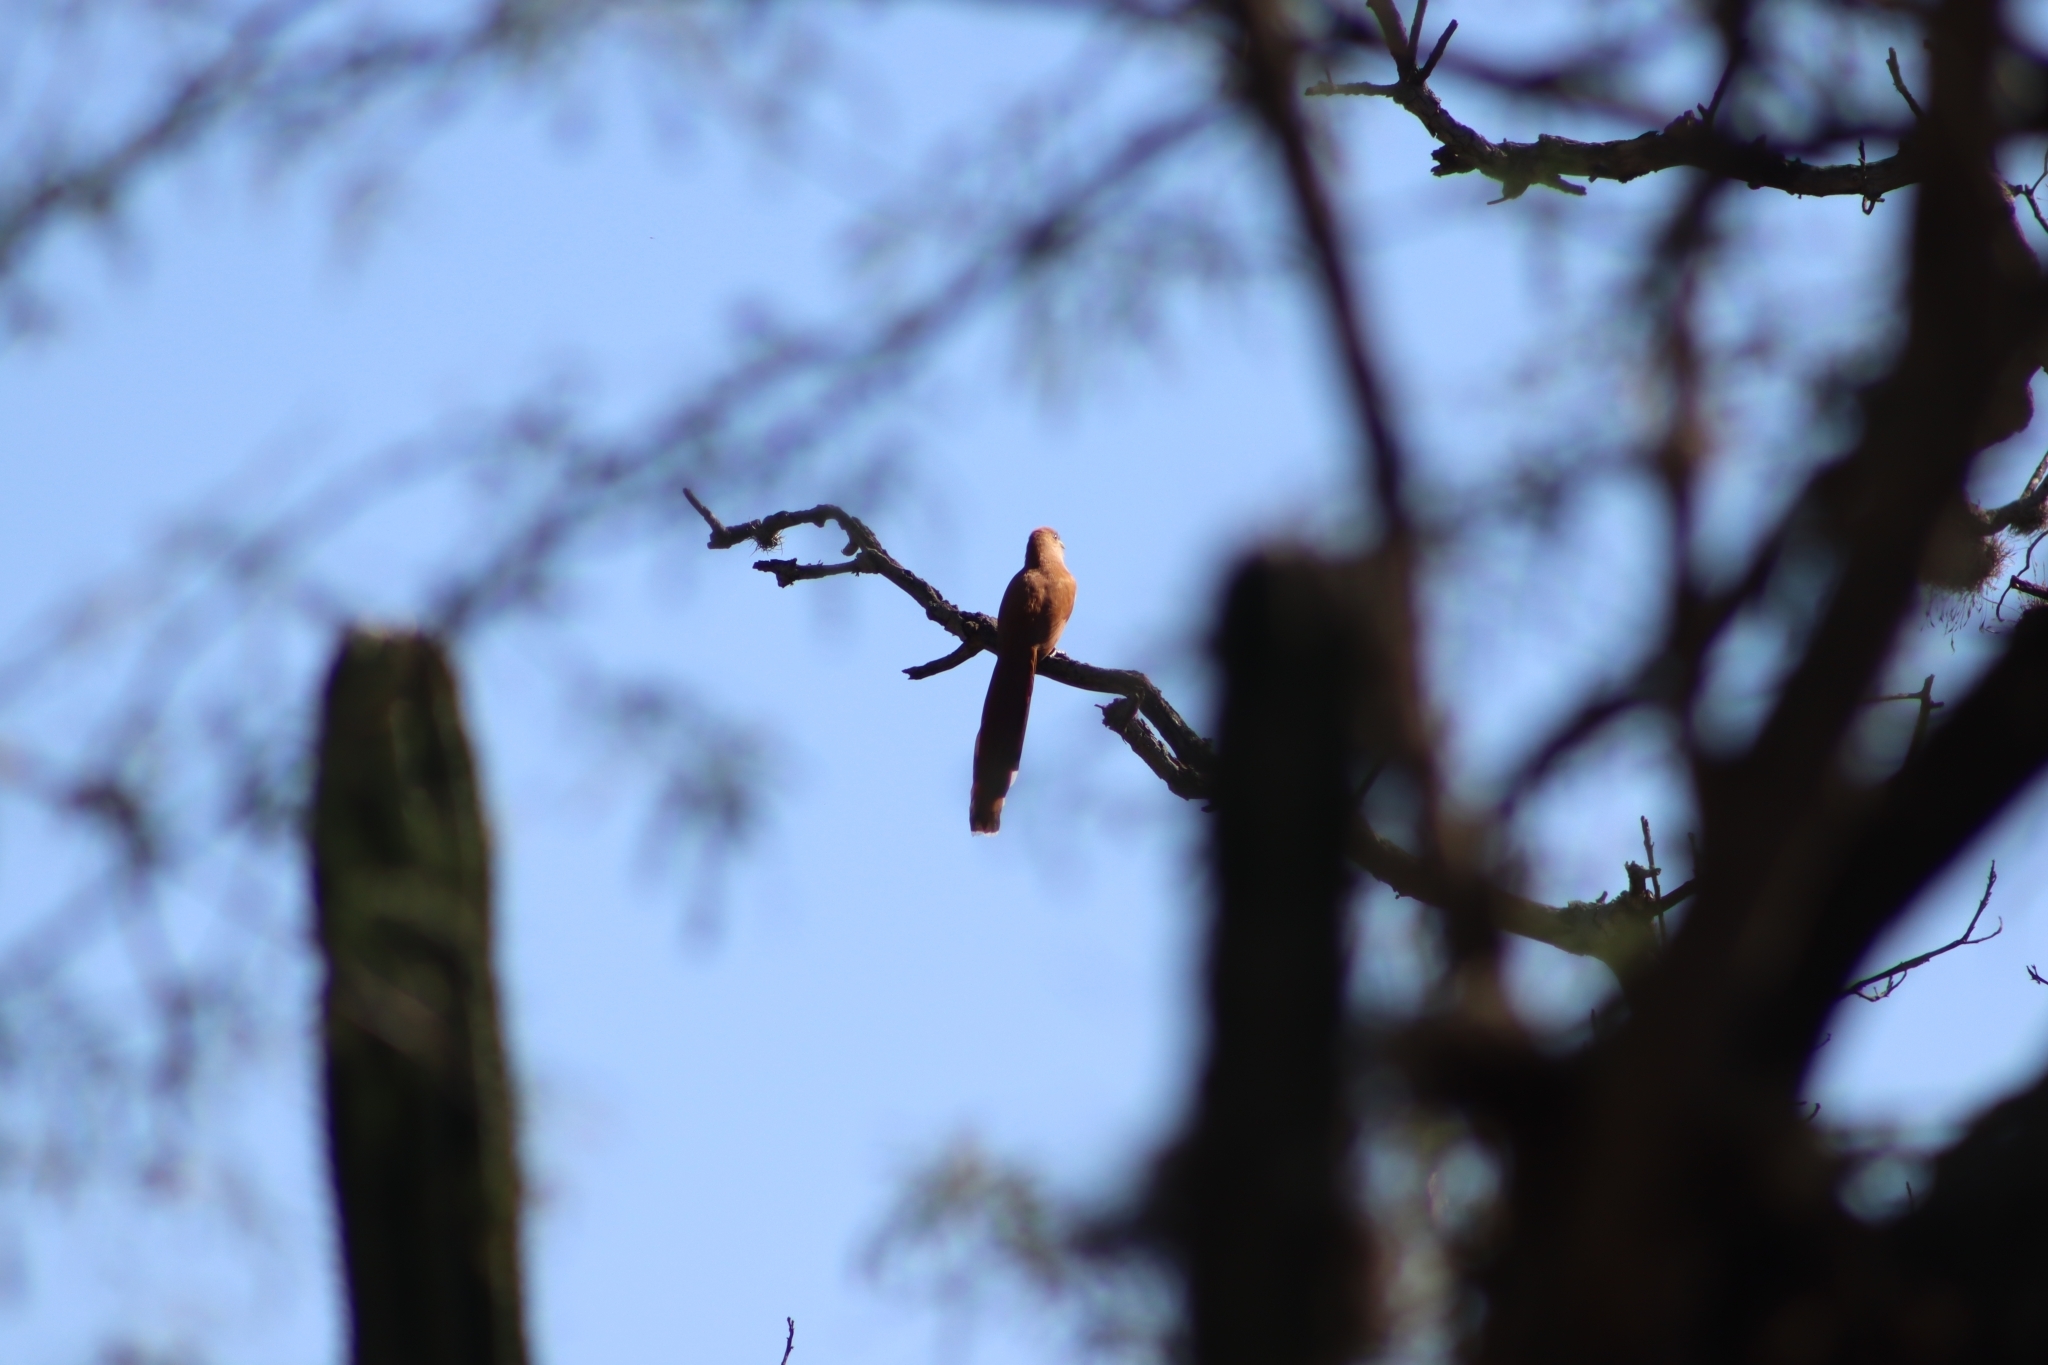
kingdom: Animalia
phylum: Chordata
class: Aves
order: Cuculiformes
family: Cuculidae
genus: Piaya
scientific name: Piaya cayana
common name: Squirrel cuckoo
